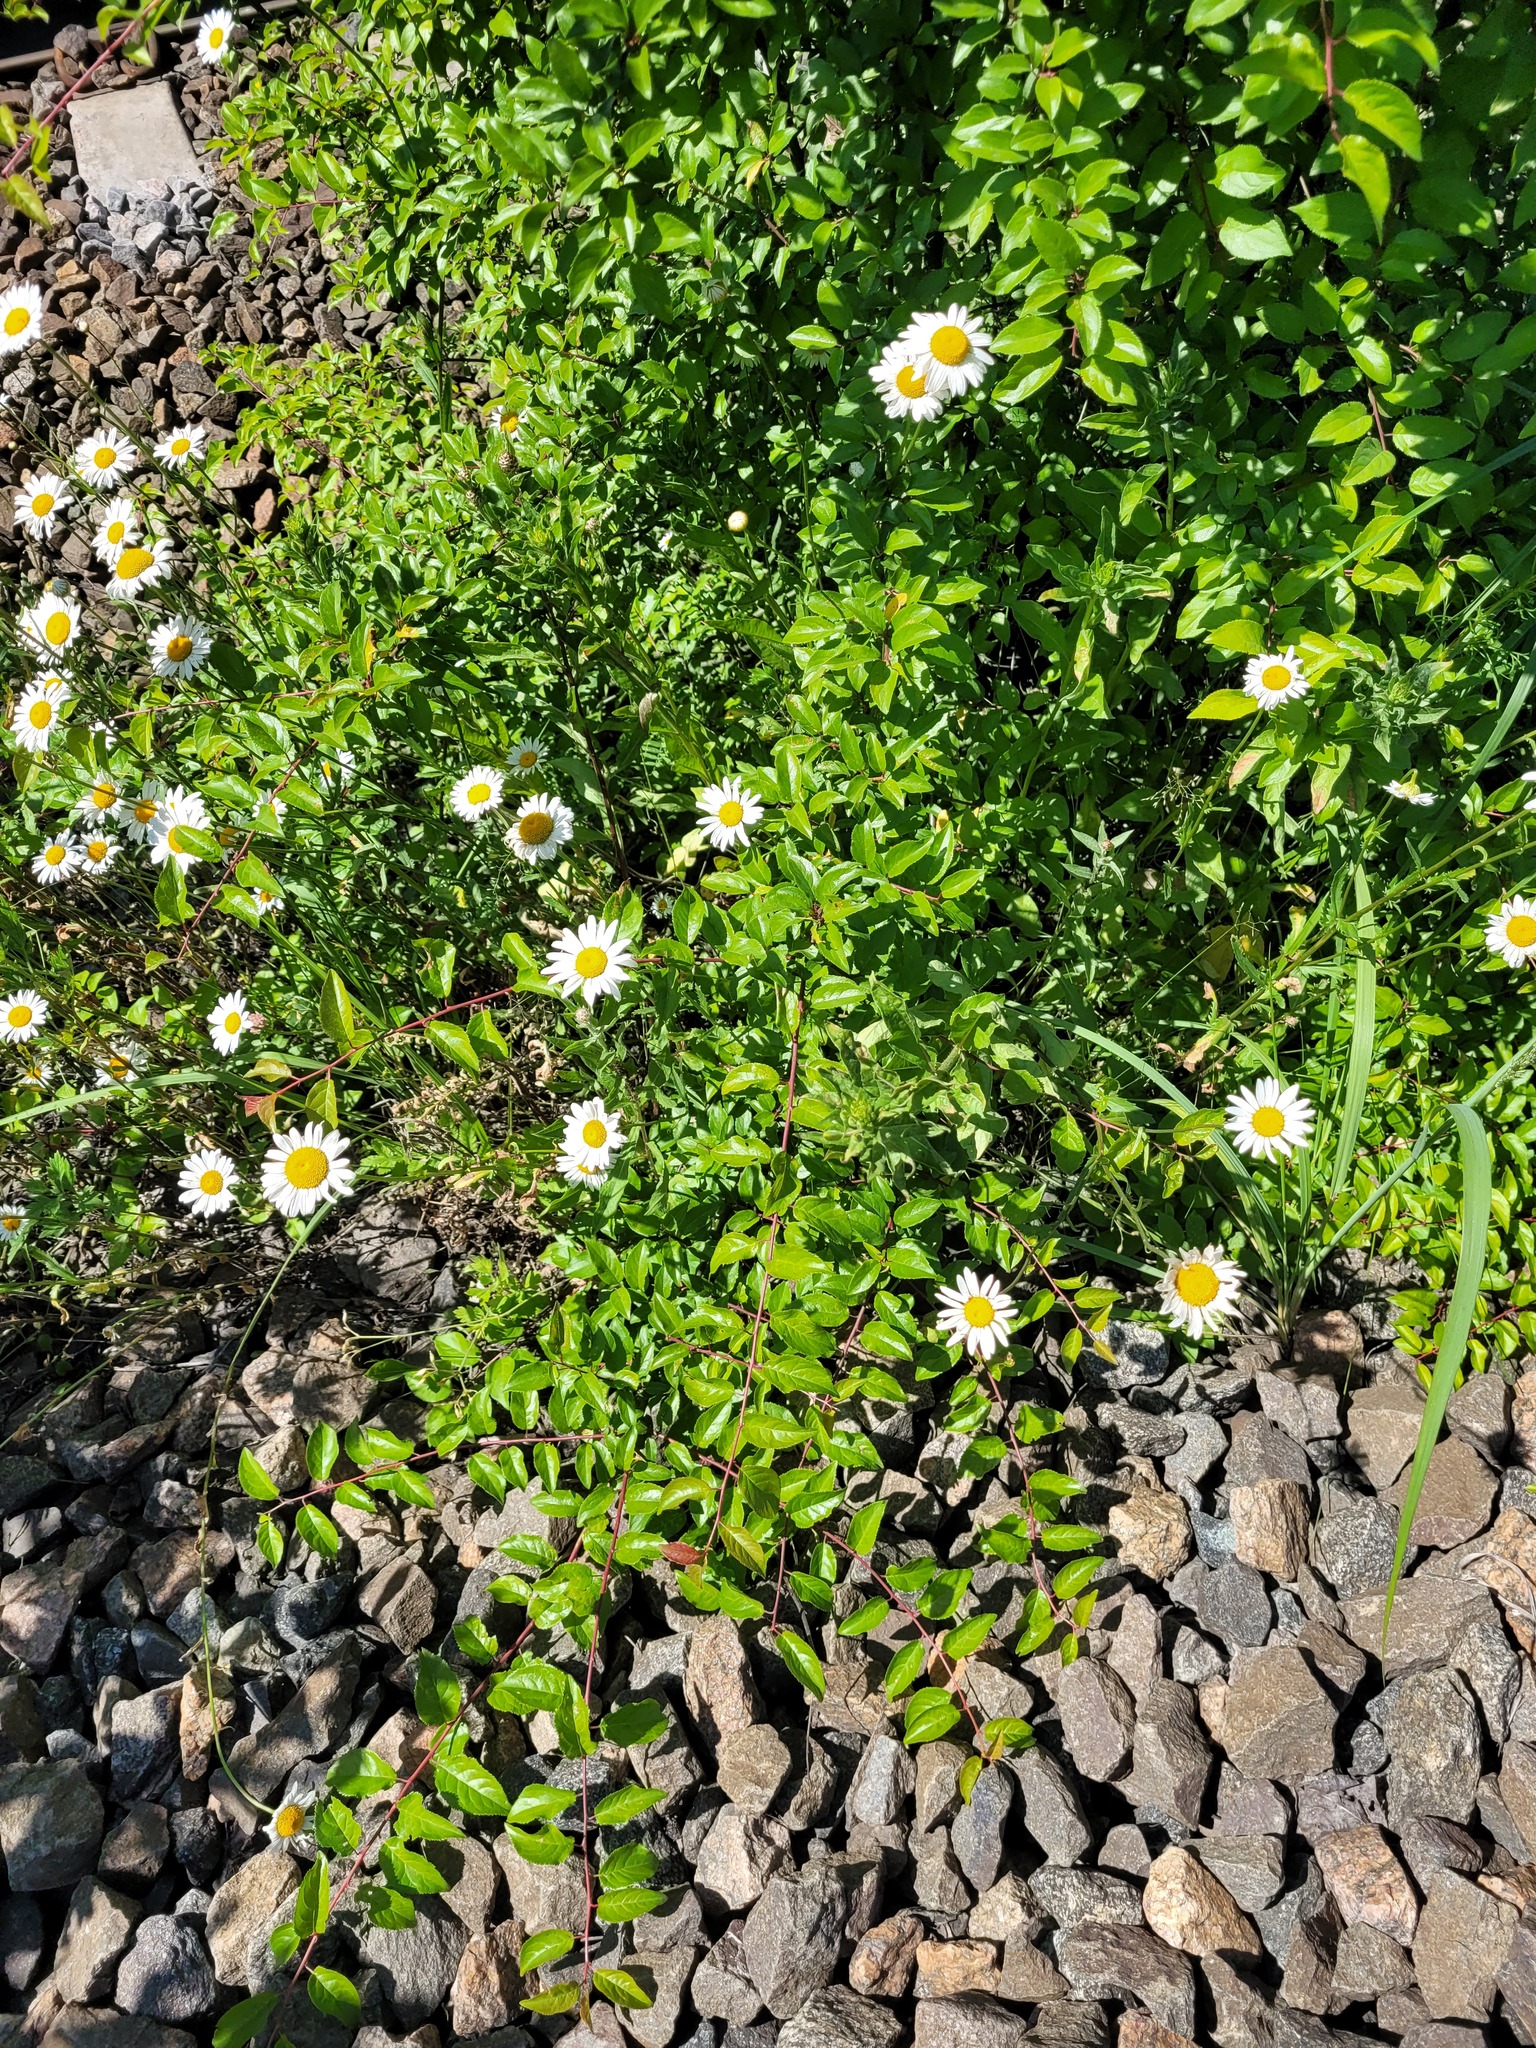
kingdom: Plantae
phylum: Tracheophyta
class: Magnoliopsida
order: Asterales
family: Asteraceae
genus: Leucanthemum
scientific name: Leucanthemum vulgare
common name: Oxeye daisy
